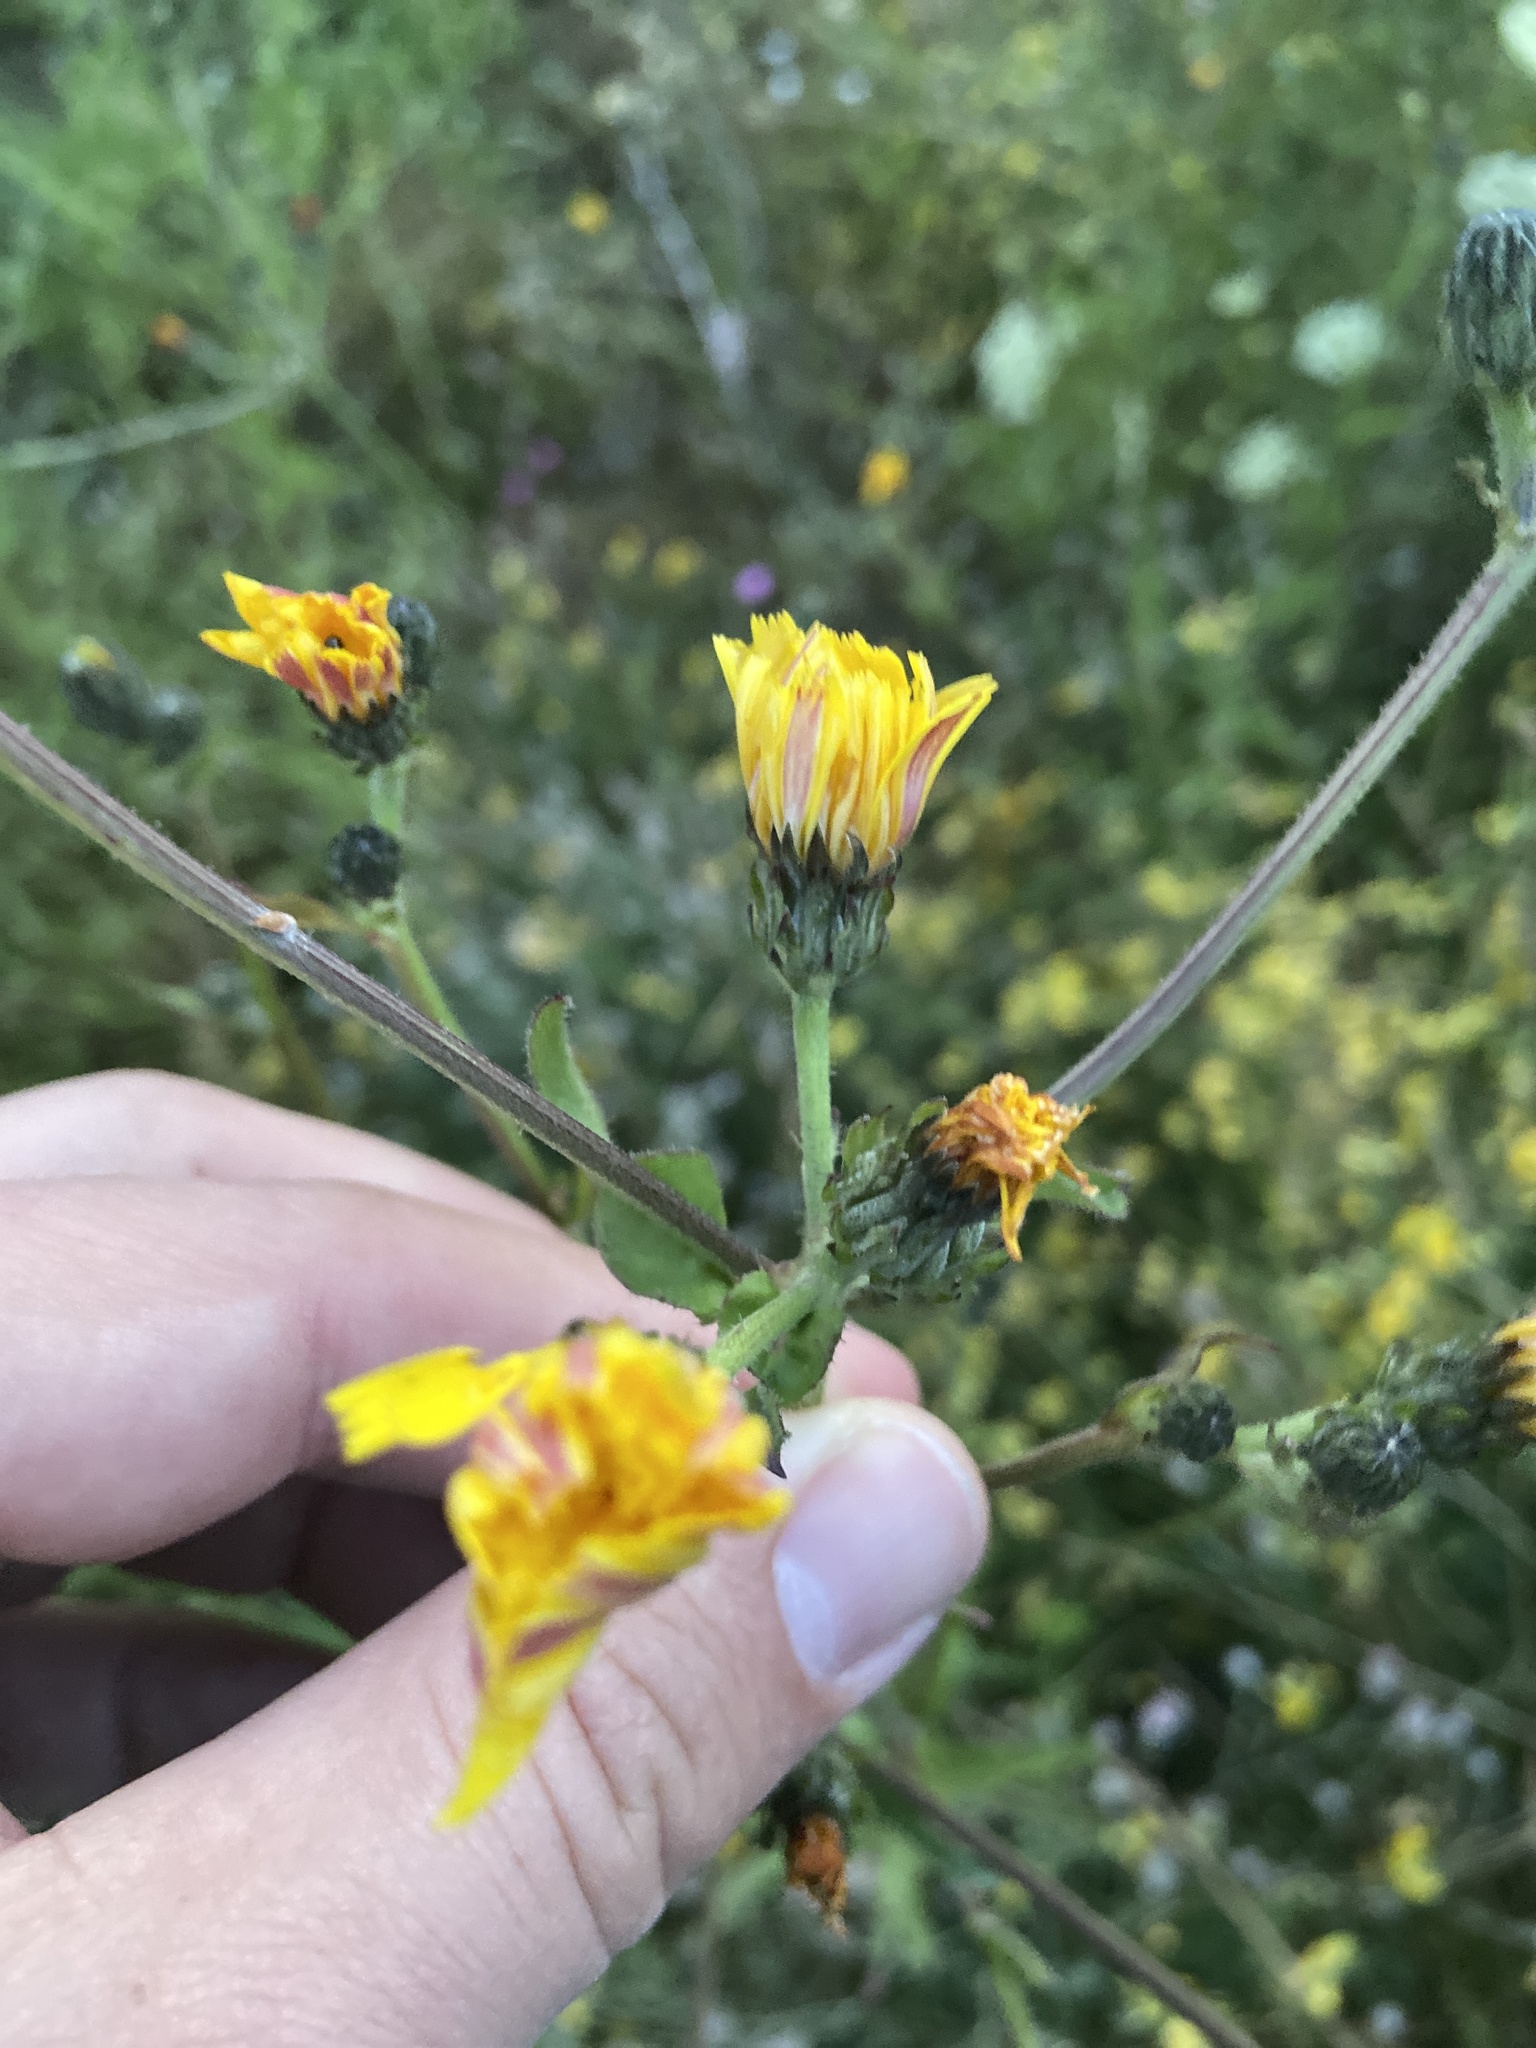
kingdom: Plantae
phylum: Tracheophyta
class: Magnoliopsida
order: Asterales
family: Asteraceae
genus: Picris
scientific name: Picris hieracioides
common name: Hawkweed oxtongue
